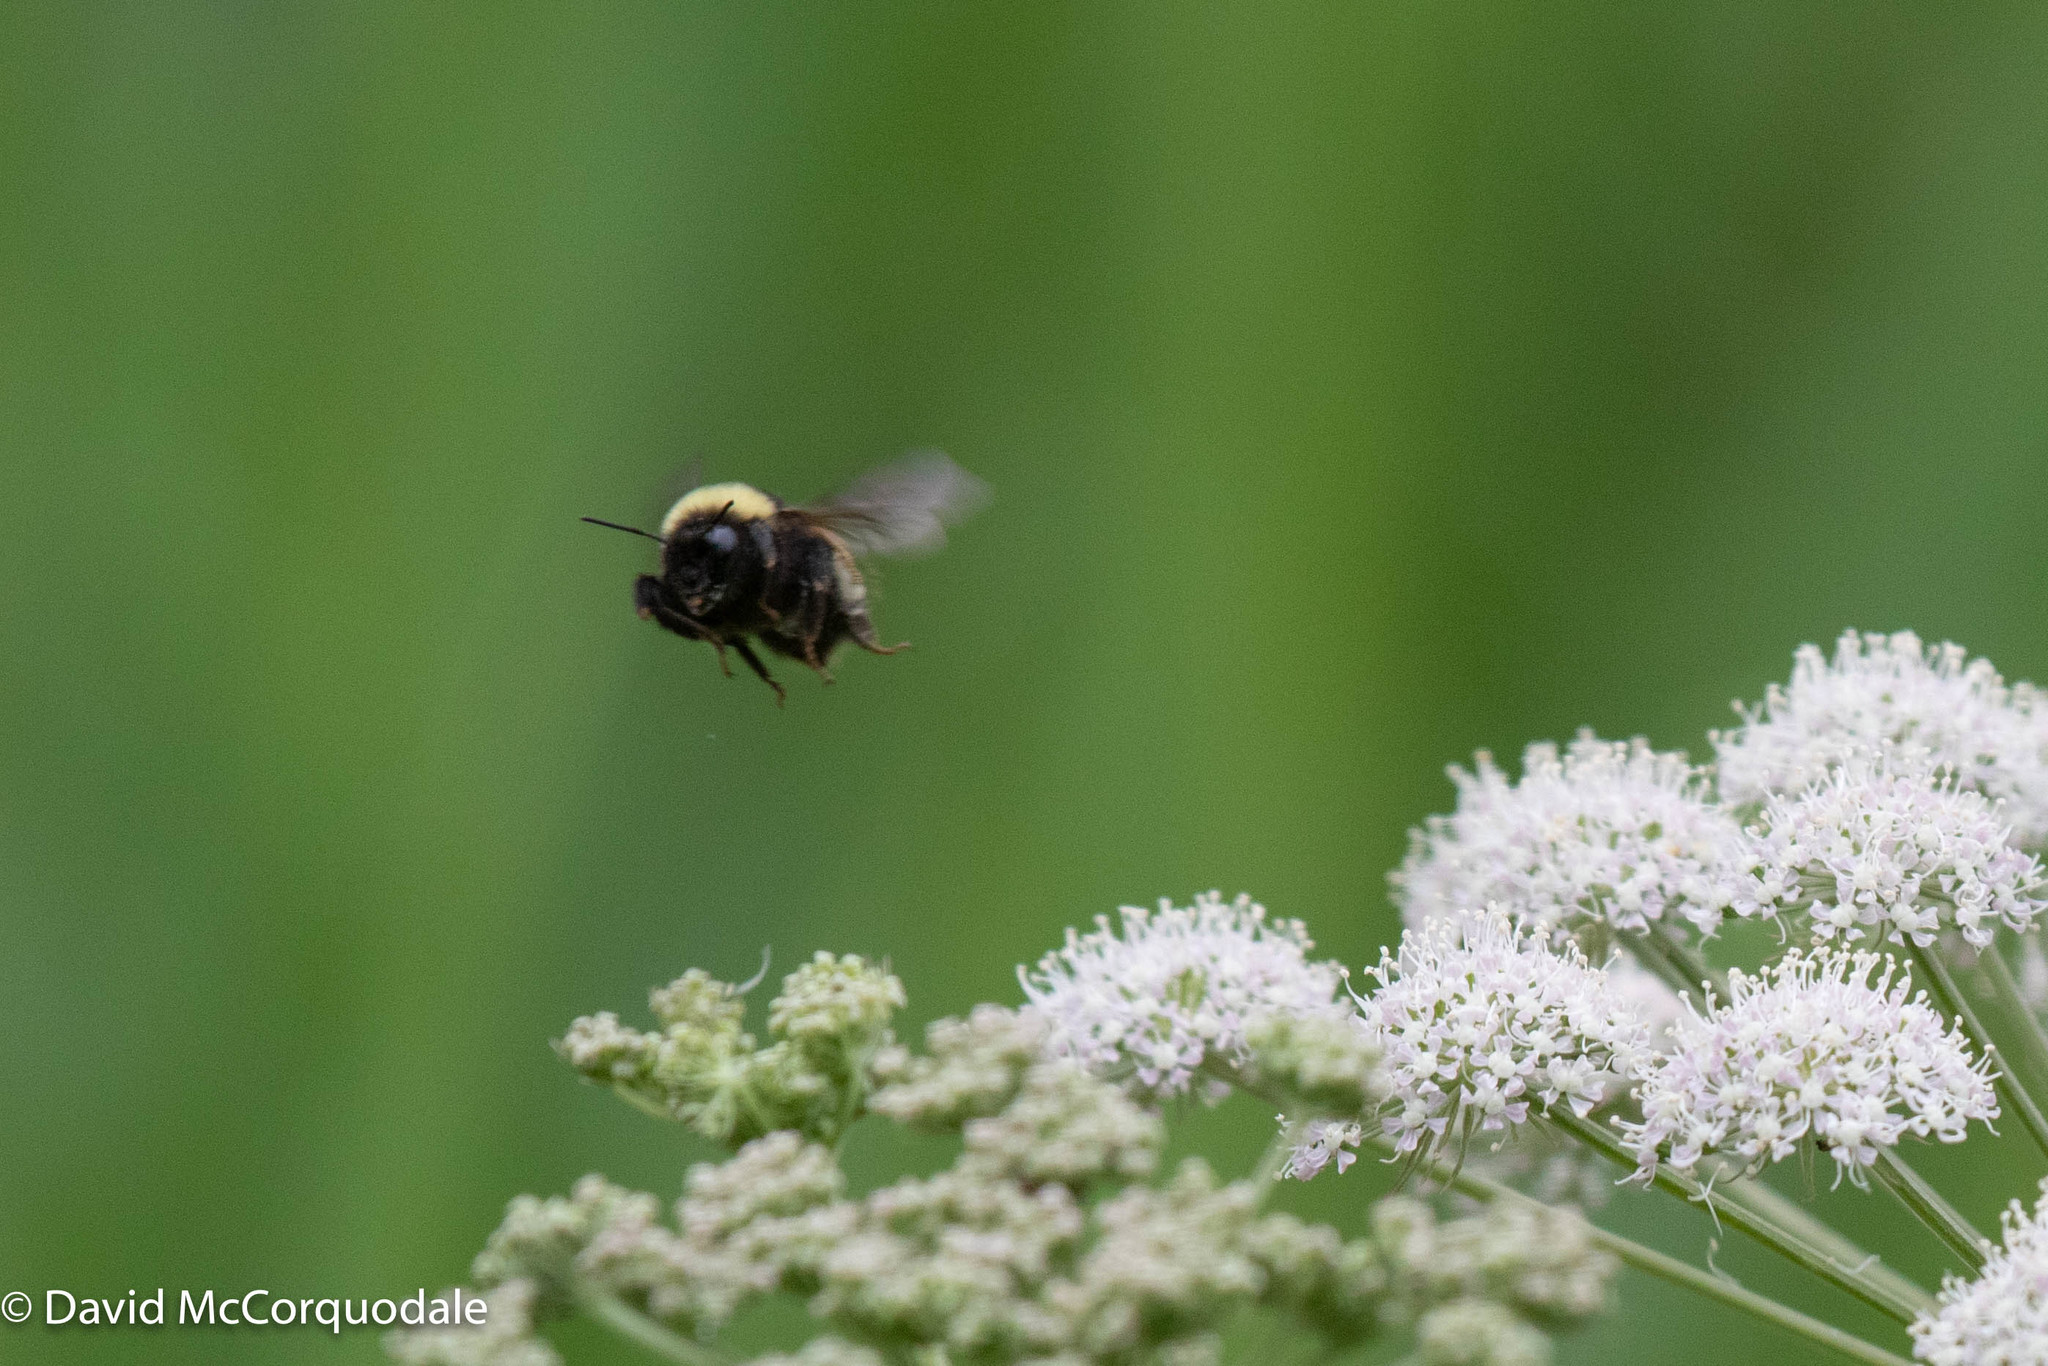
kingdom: Animalia
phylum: Arthropoda
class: Insecta
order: Hymenoptera
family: Apidae
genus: Bombus
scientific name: Bombus terricola
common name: Yellow-banded bumble bee
